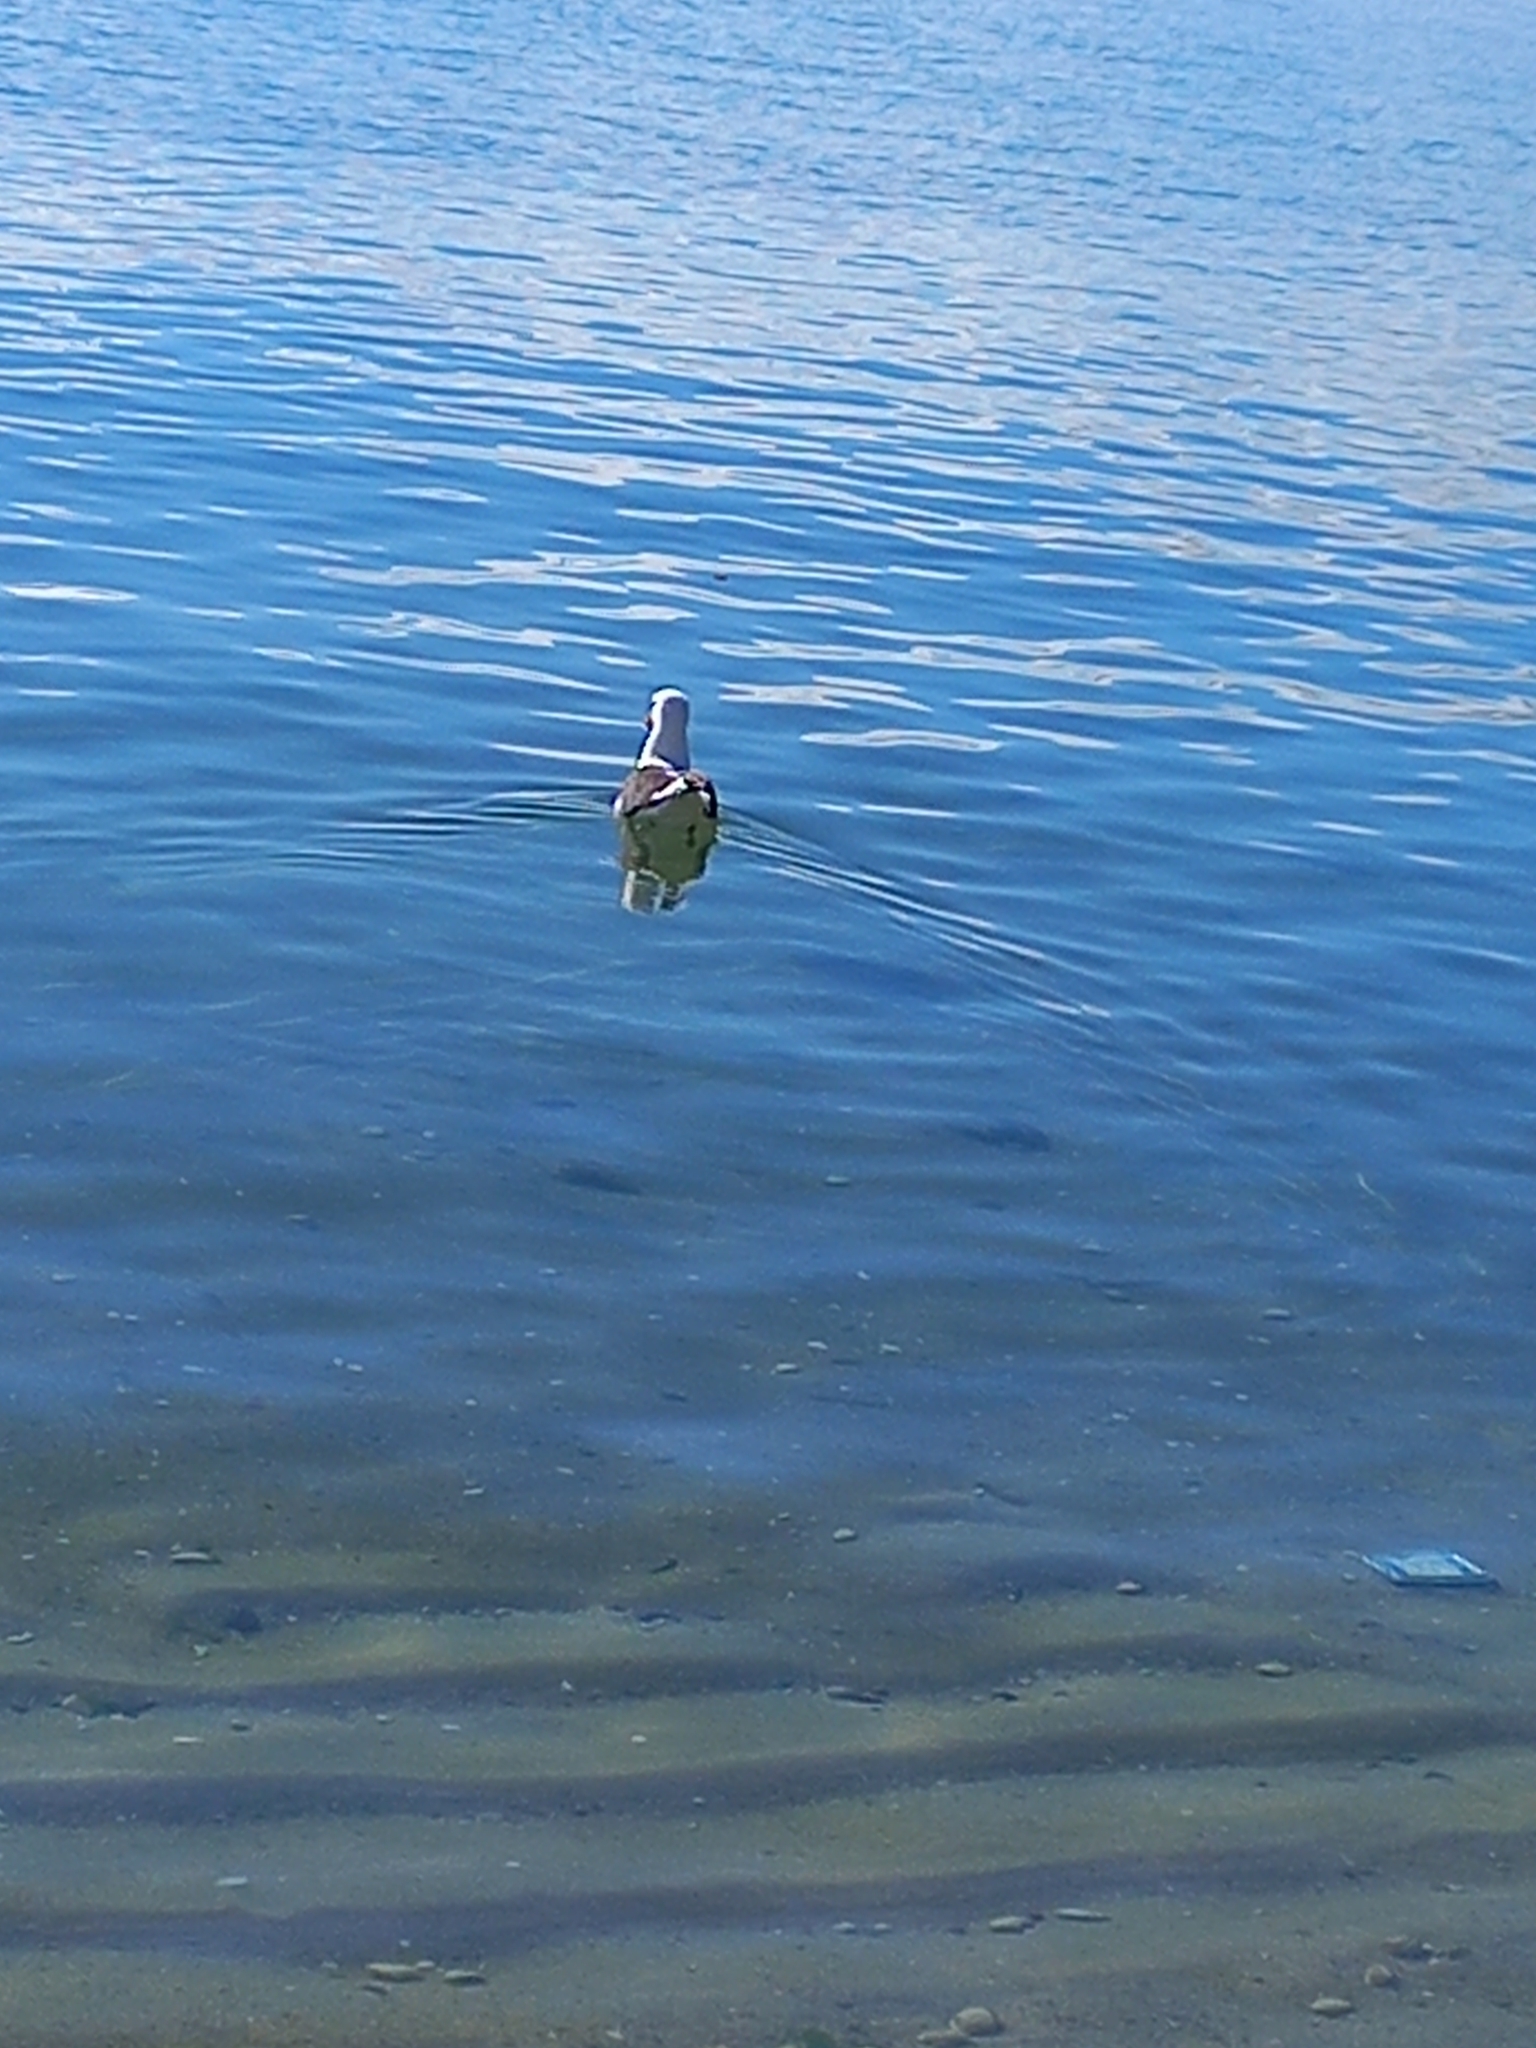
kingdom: Animalia
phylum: Chordata
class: Aves
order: Charadriiformes
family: Laridae
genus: Larus
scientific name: Larus dominicanus
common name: Kelp gull
